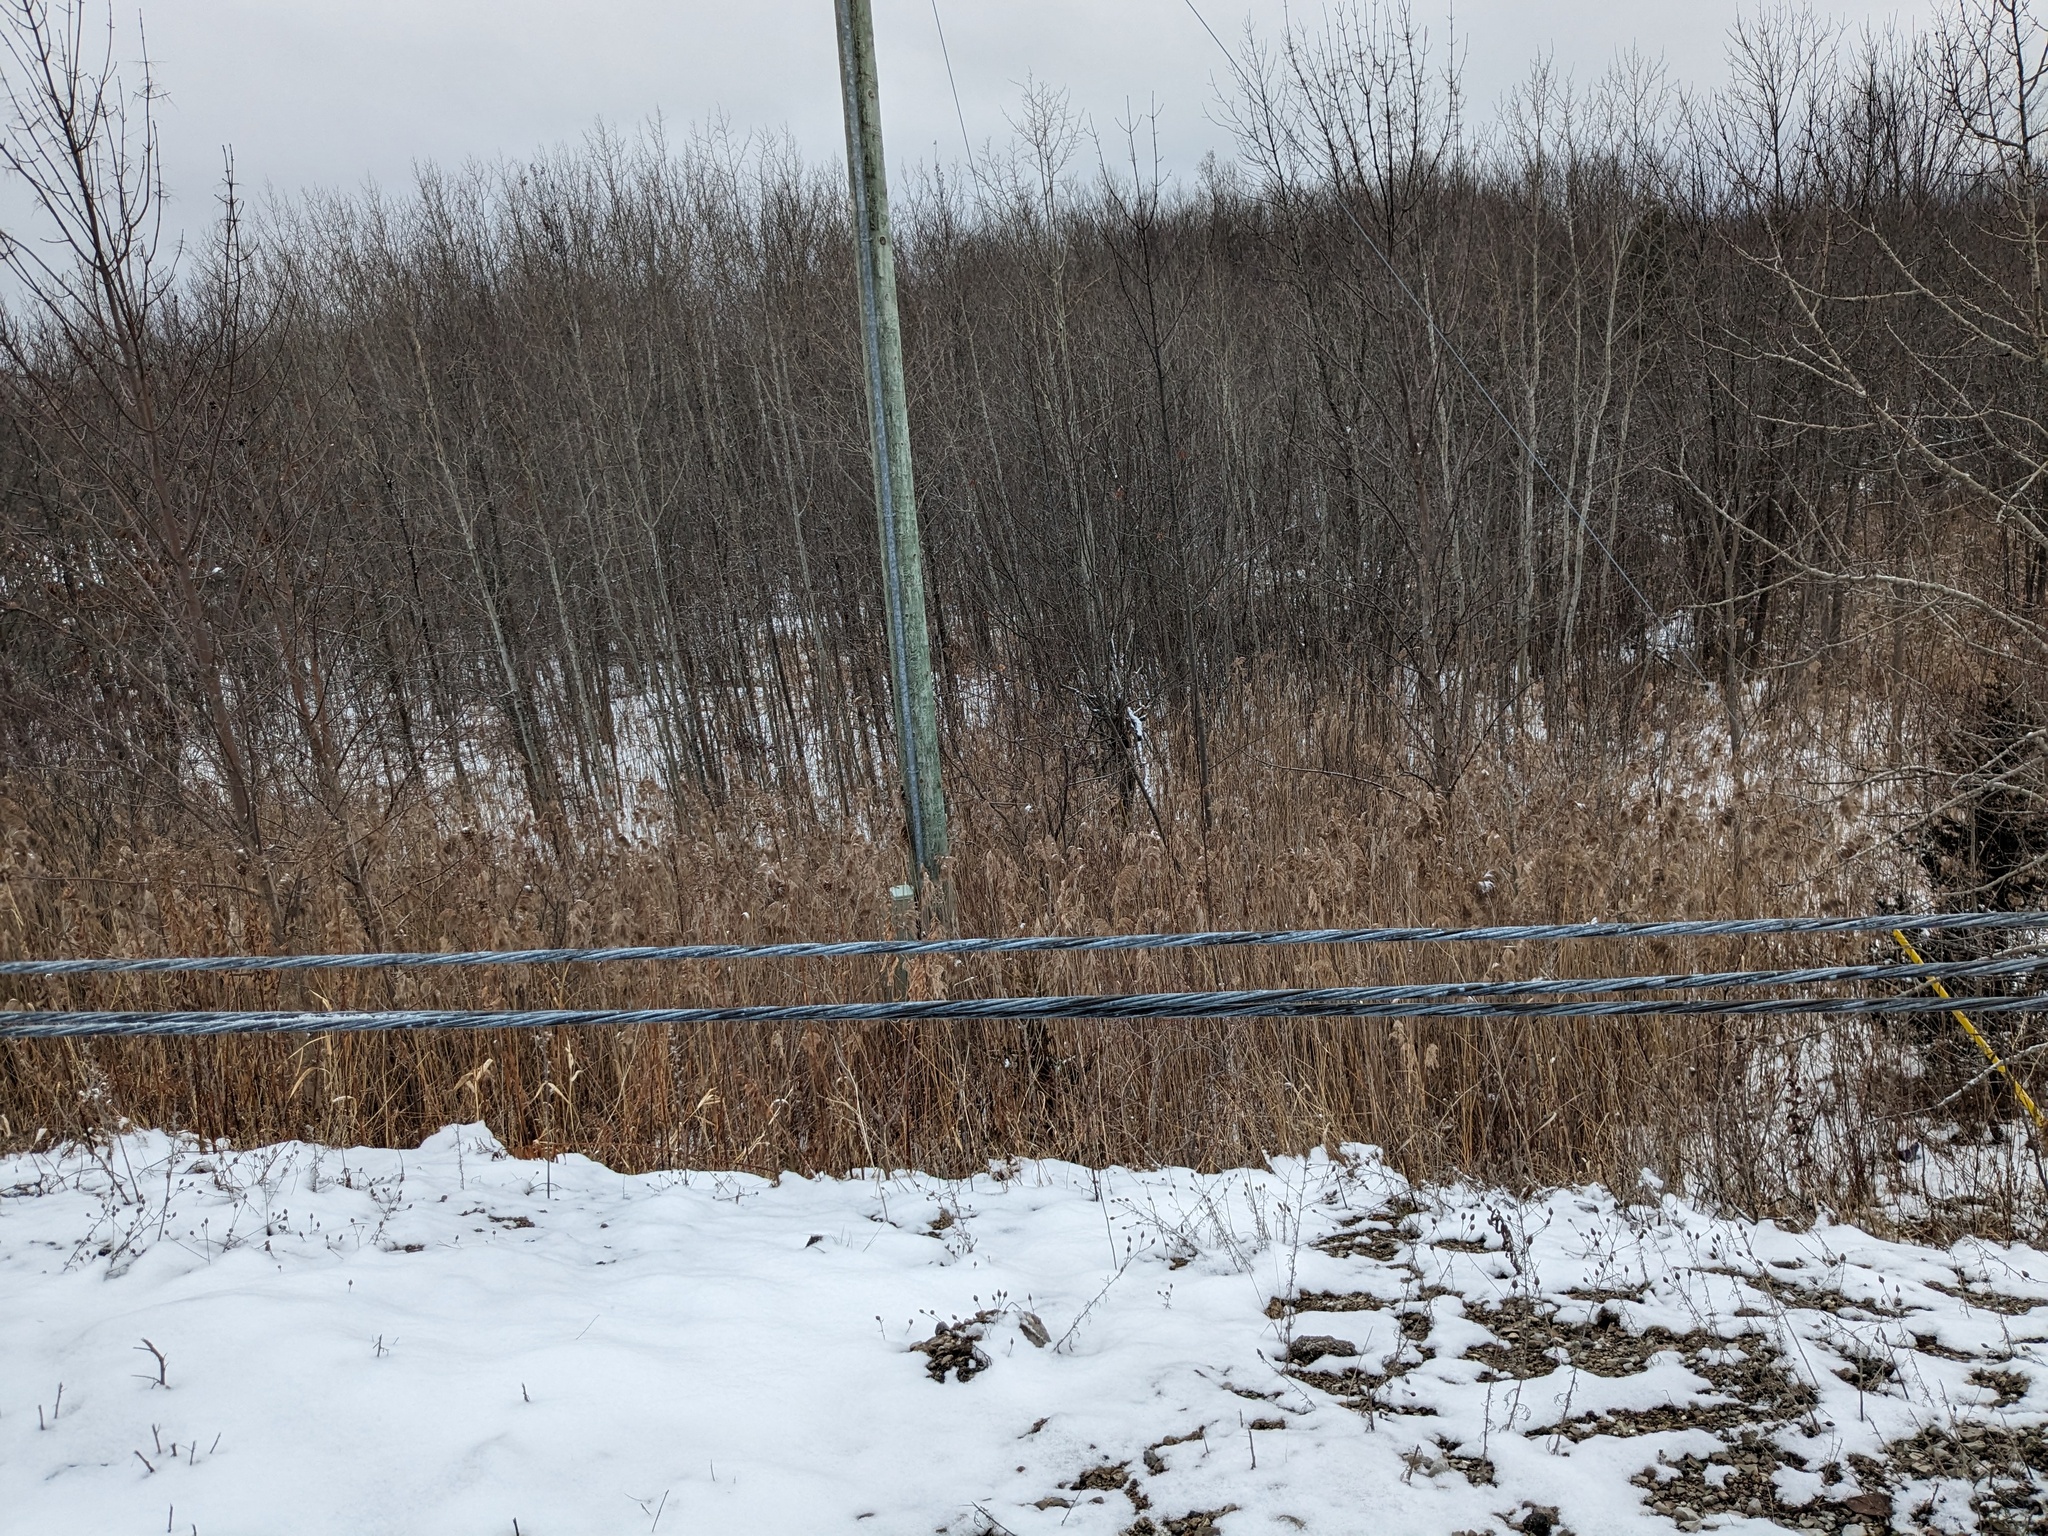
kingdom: Plantae
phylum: Tracheophyta
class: Liliopsida
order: Poales
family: Poaceae
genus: Phragmites
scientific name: Phragmites australis
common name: Common reed
